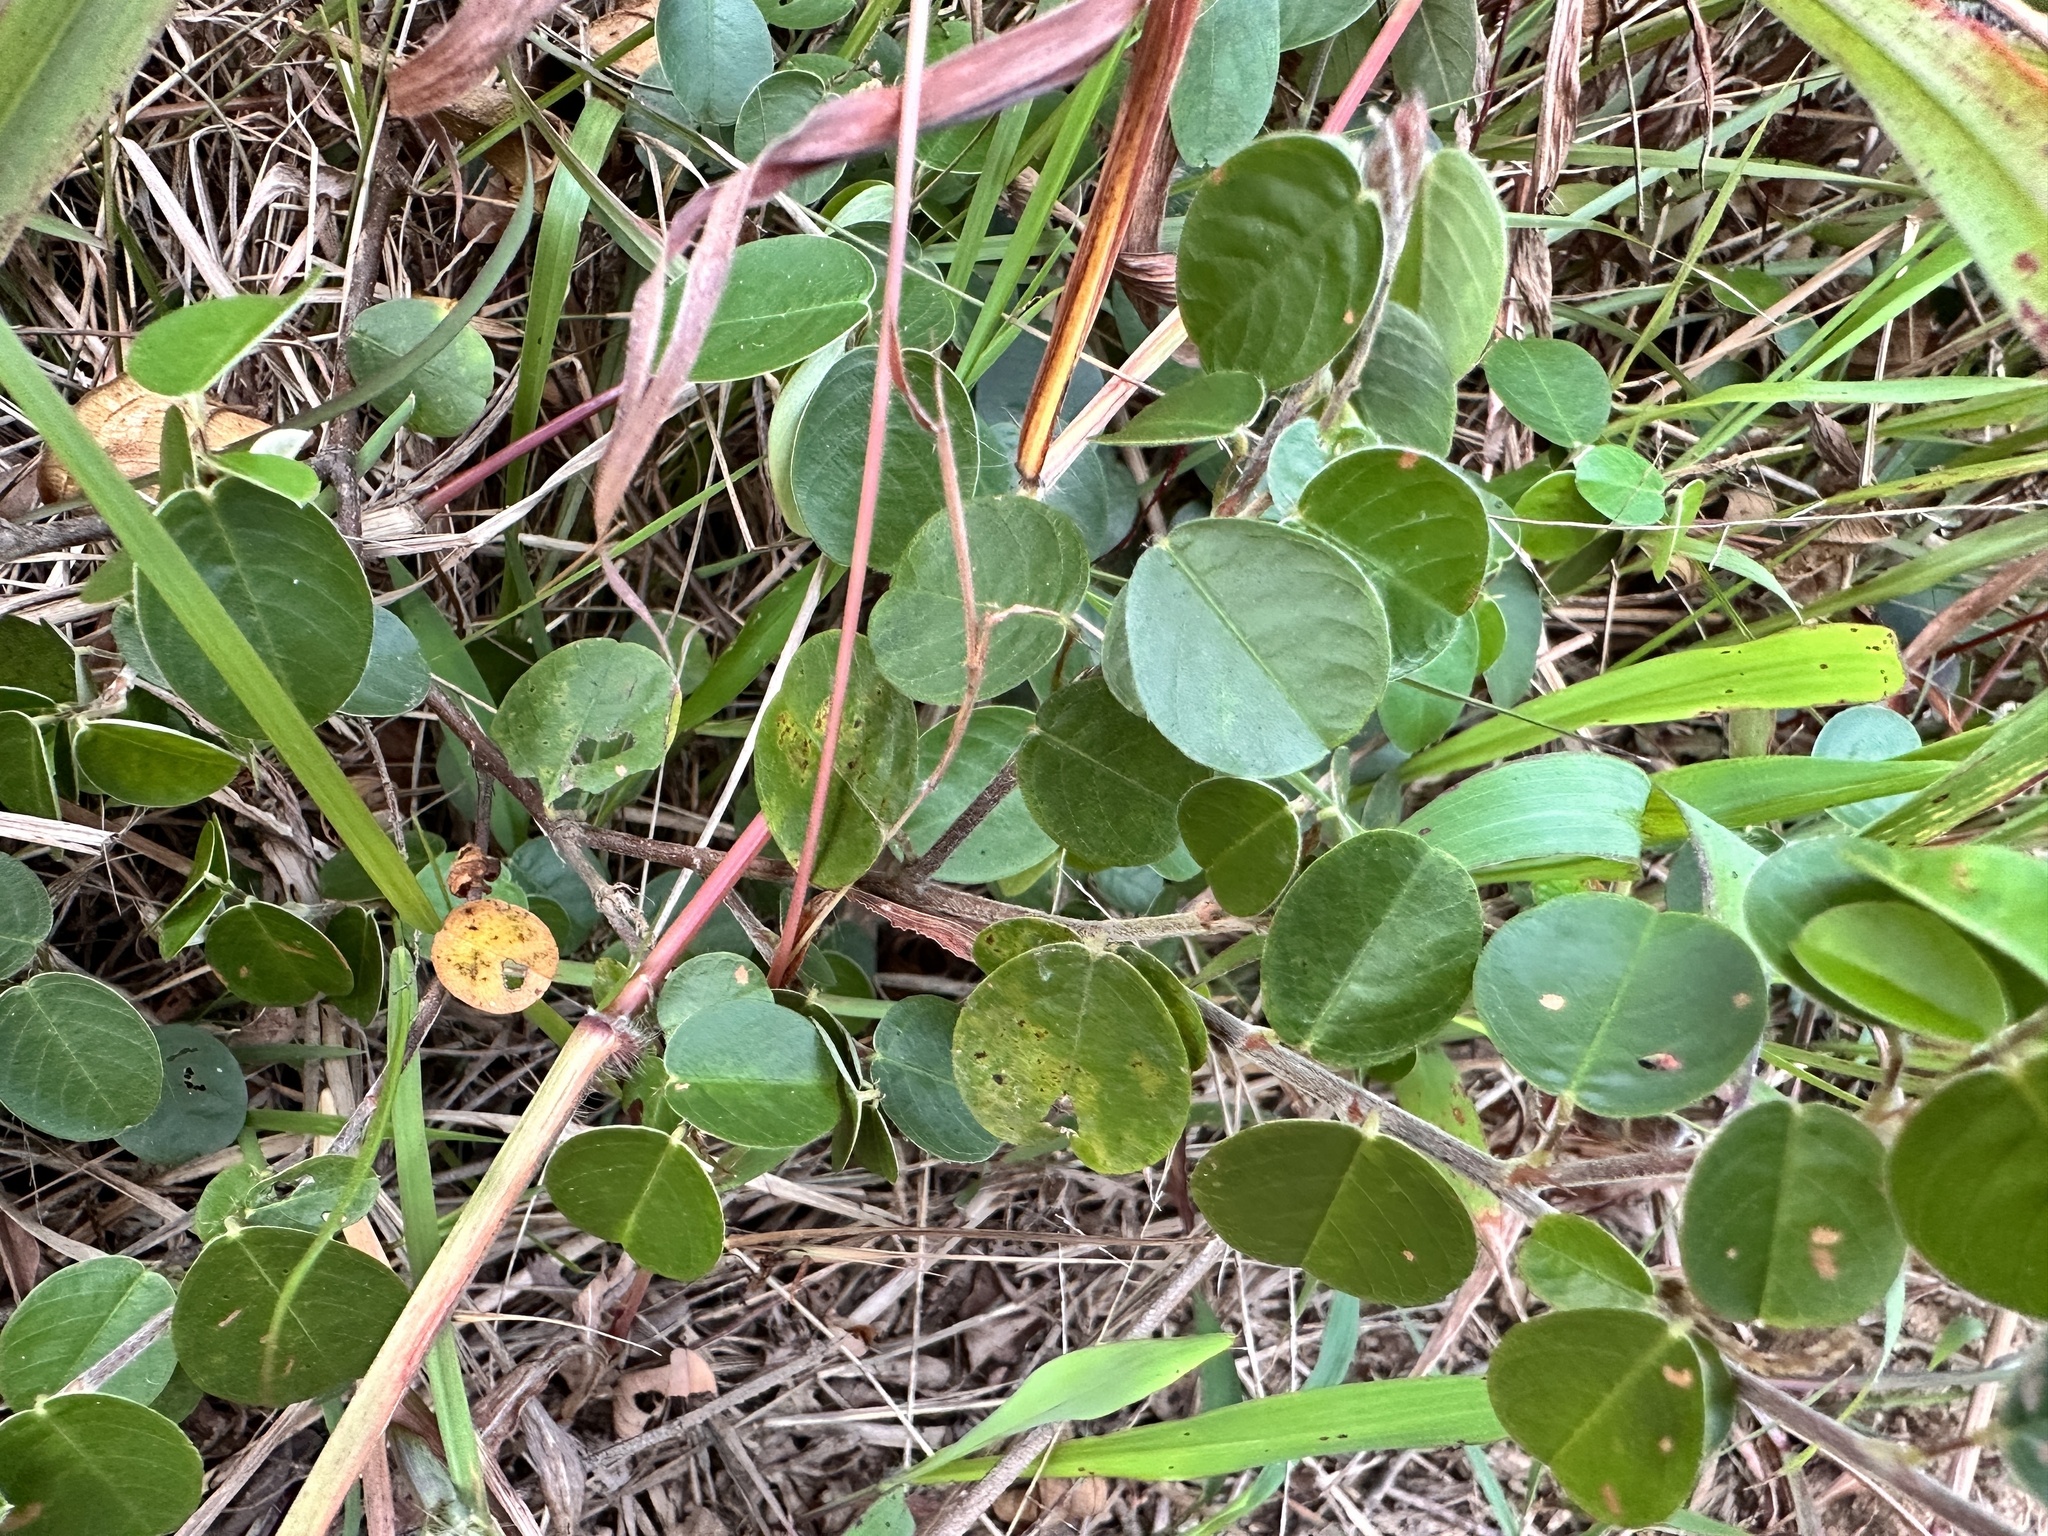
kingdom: Plantae
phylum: Tracheophyta
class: Magnoliopsida
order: Fabales
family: Fabaceae
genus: Grona
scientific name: Grona heterocarpos
